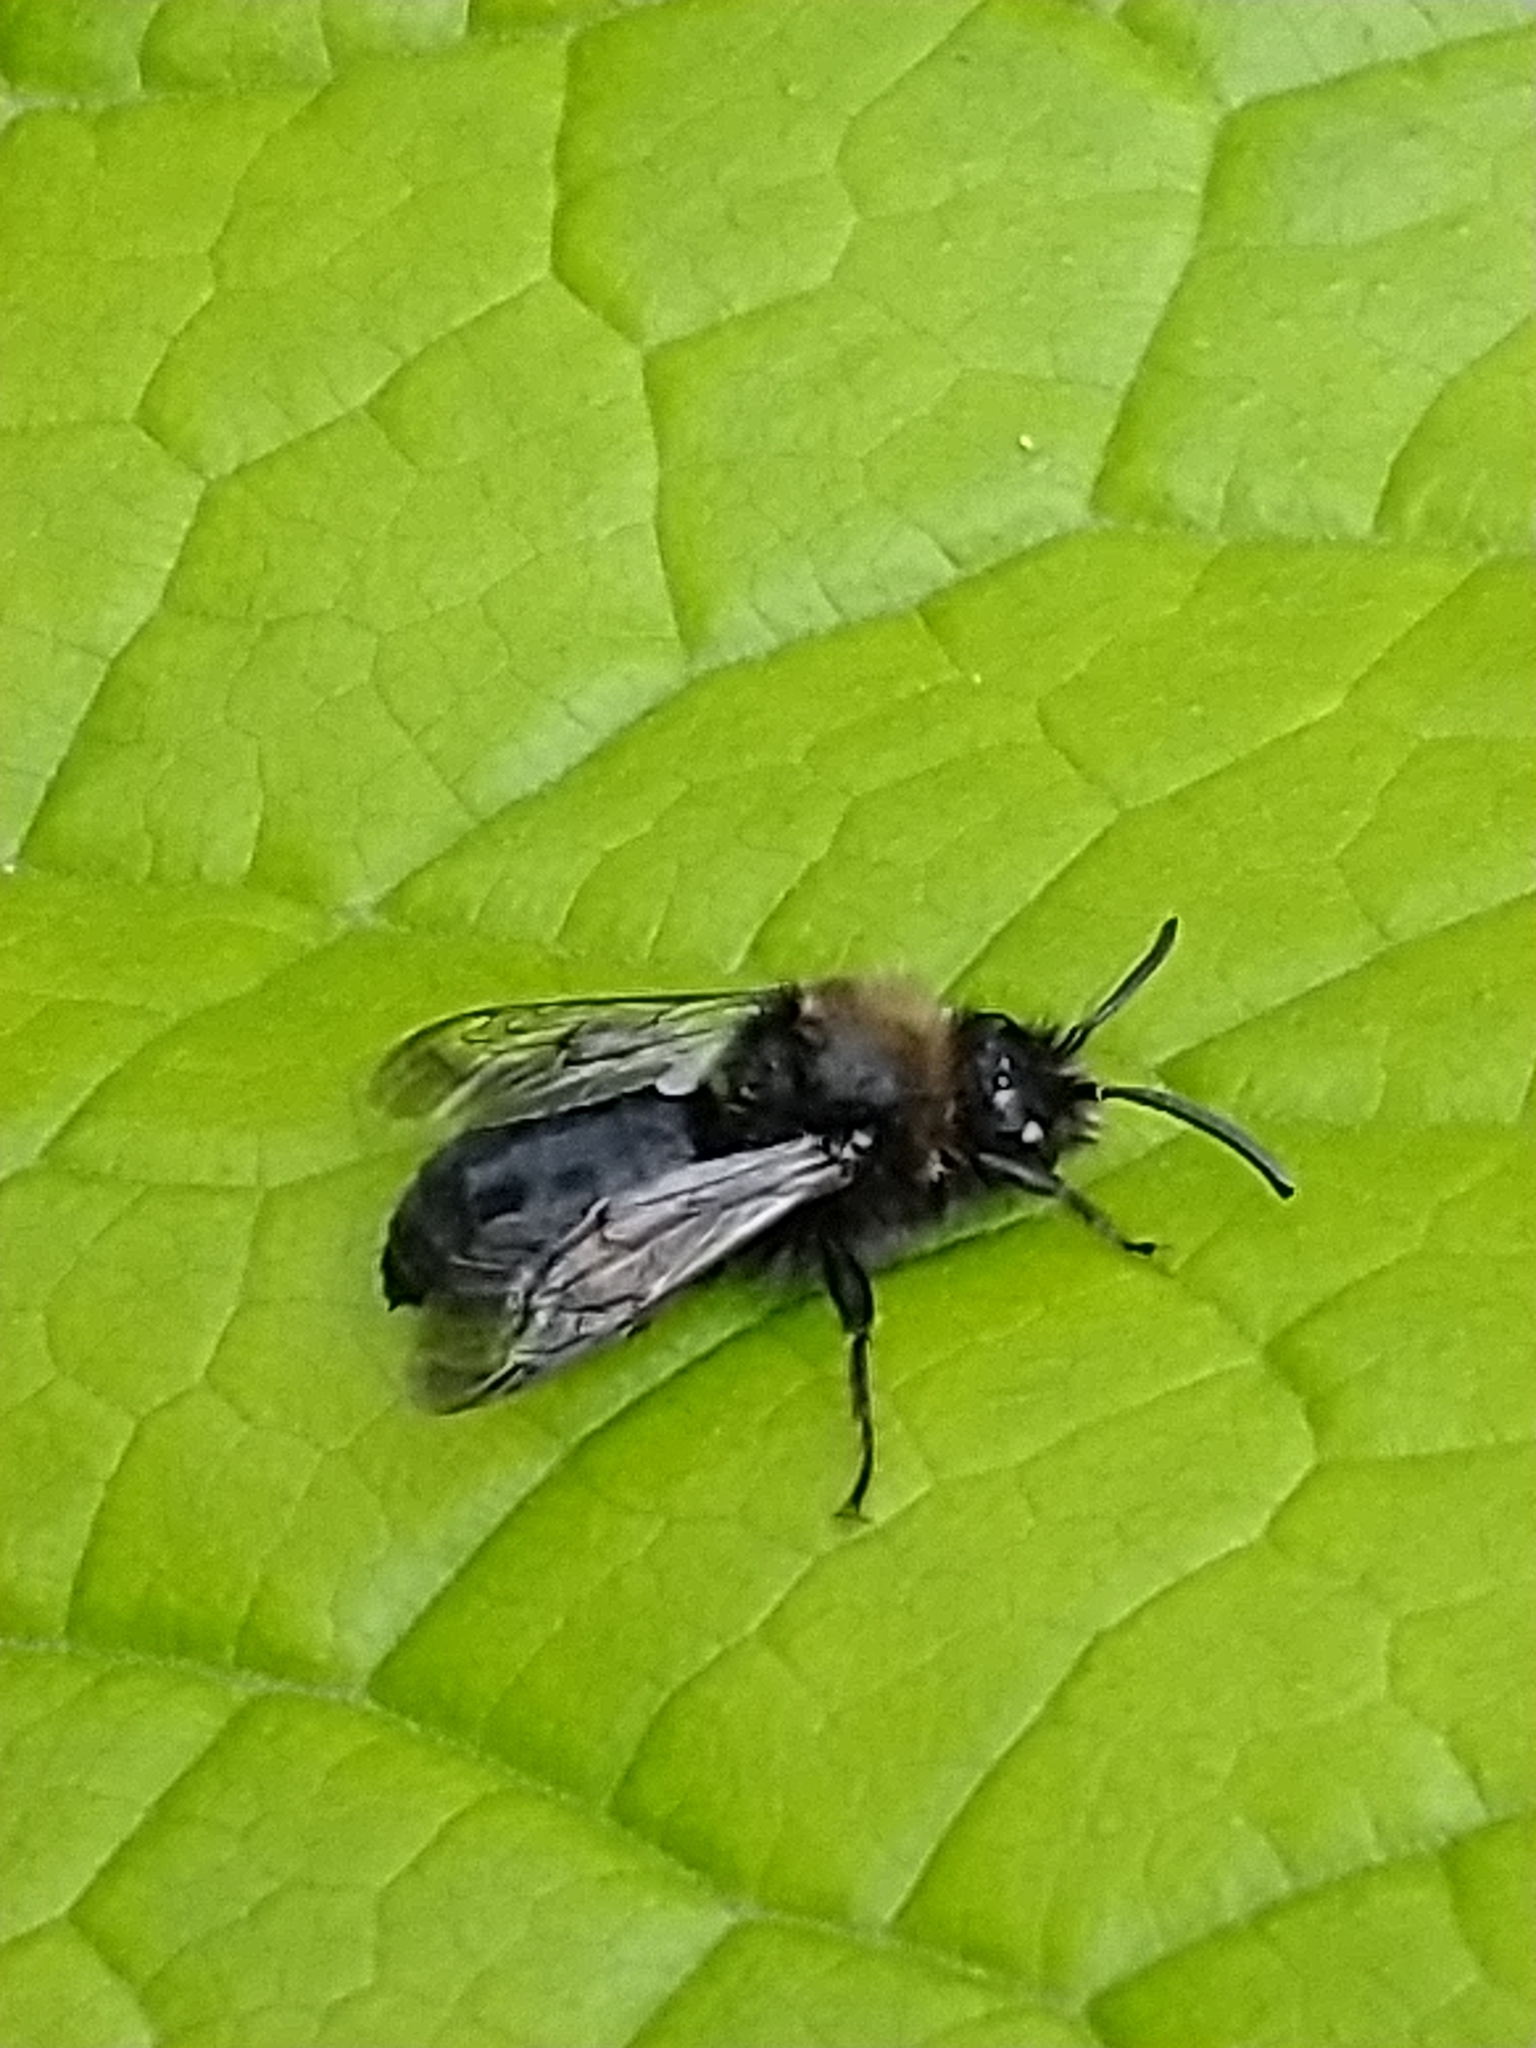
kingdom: Animalia
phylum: Arthropoda
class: Insecta
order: Hymenoptera
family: Apidae
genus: Melecta
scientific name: Melecta albifrons
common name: Common mourning bee
